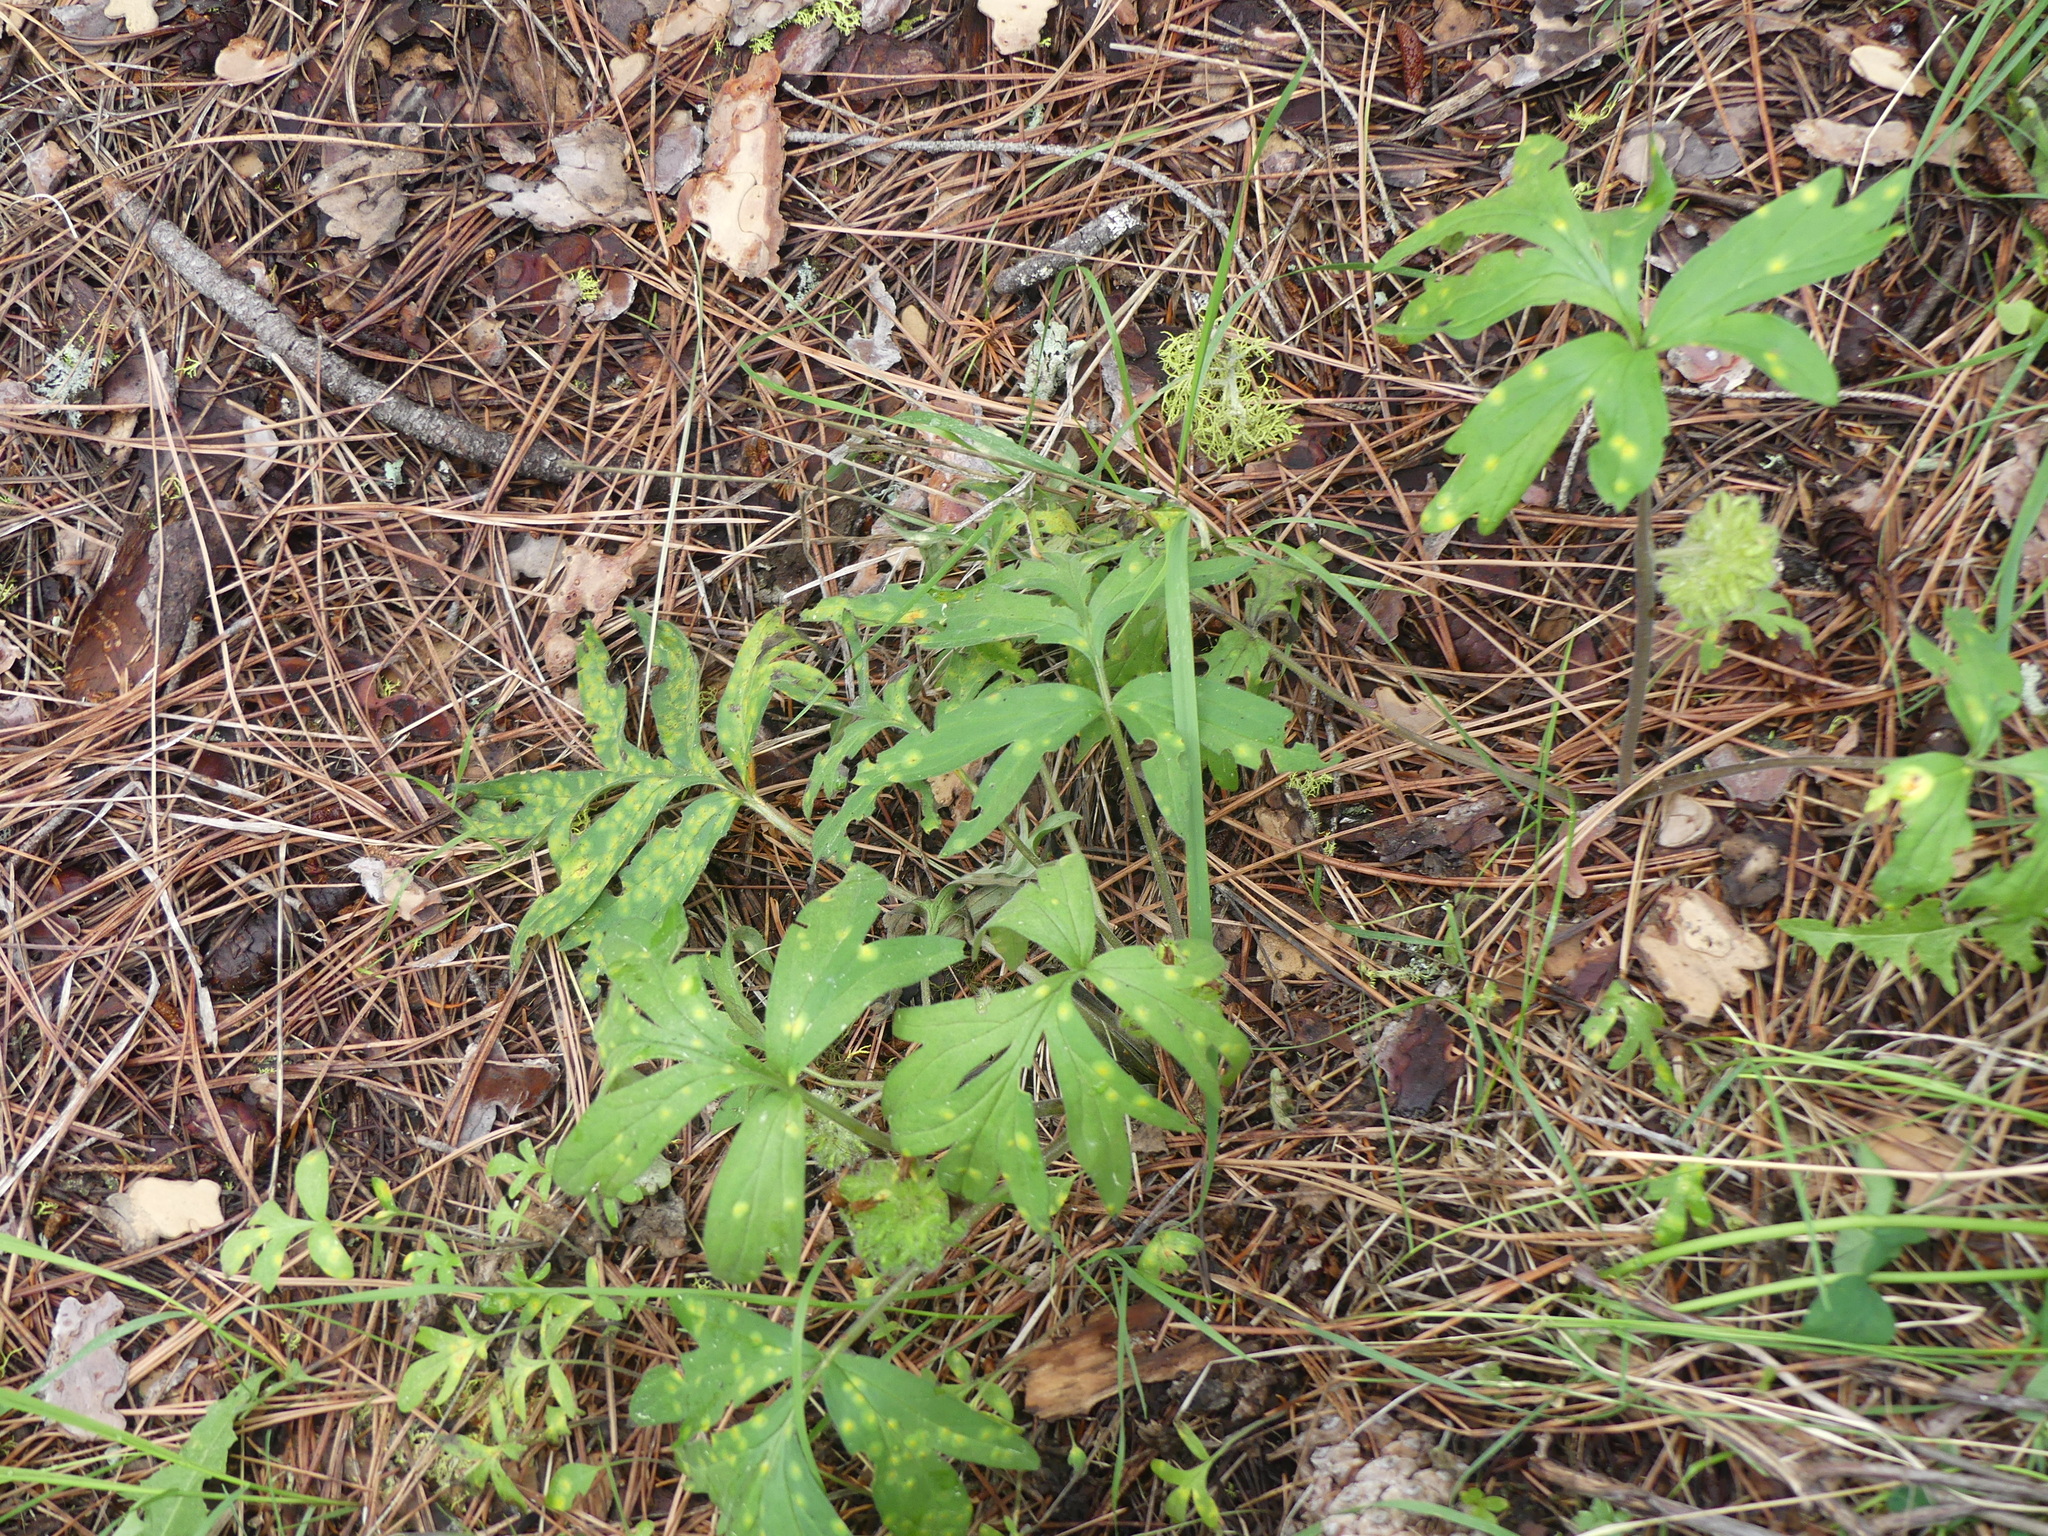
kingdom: Plantae
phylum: Tracheophyta
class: Magnoliopsida
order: Boraginales
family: Hydrophyllaceae
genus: Hydrophyllum
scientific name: Hydrophyllum capitatum
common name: Woollen-breeches
